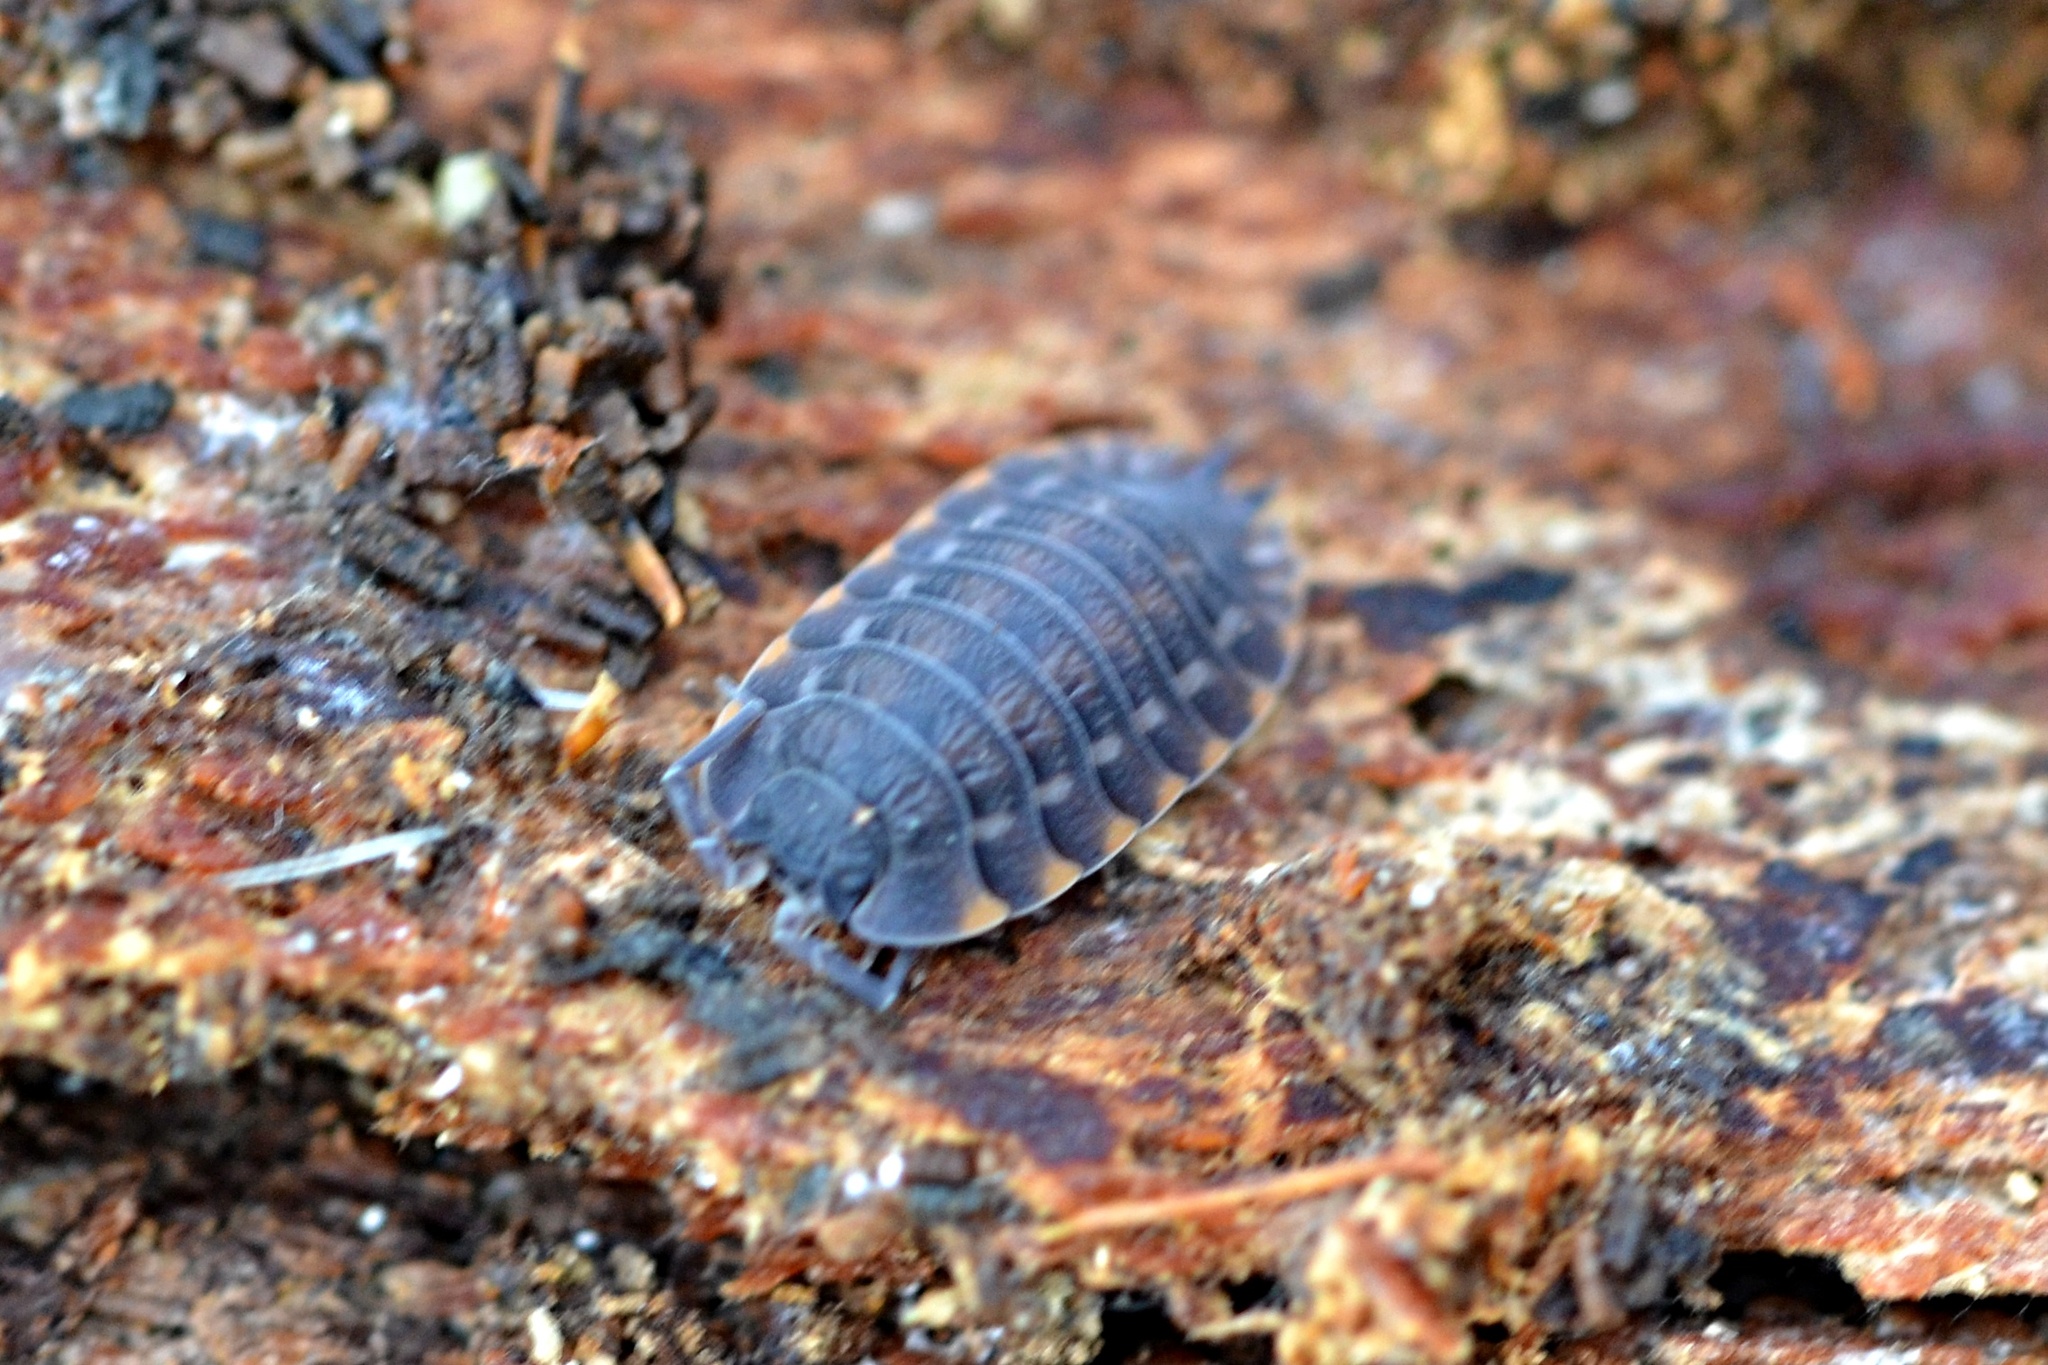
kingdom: Animalia
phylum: Arthropoda
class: Malacostraca
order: Isopoda
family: Trachelipodidae
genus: Trachelipus
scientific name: Trachelipus ratzeburgii
